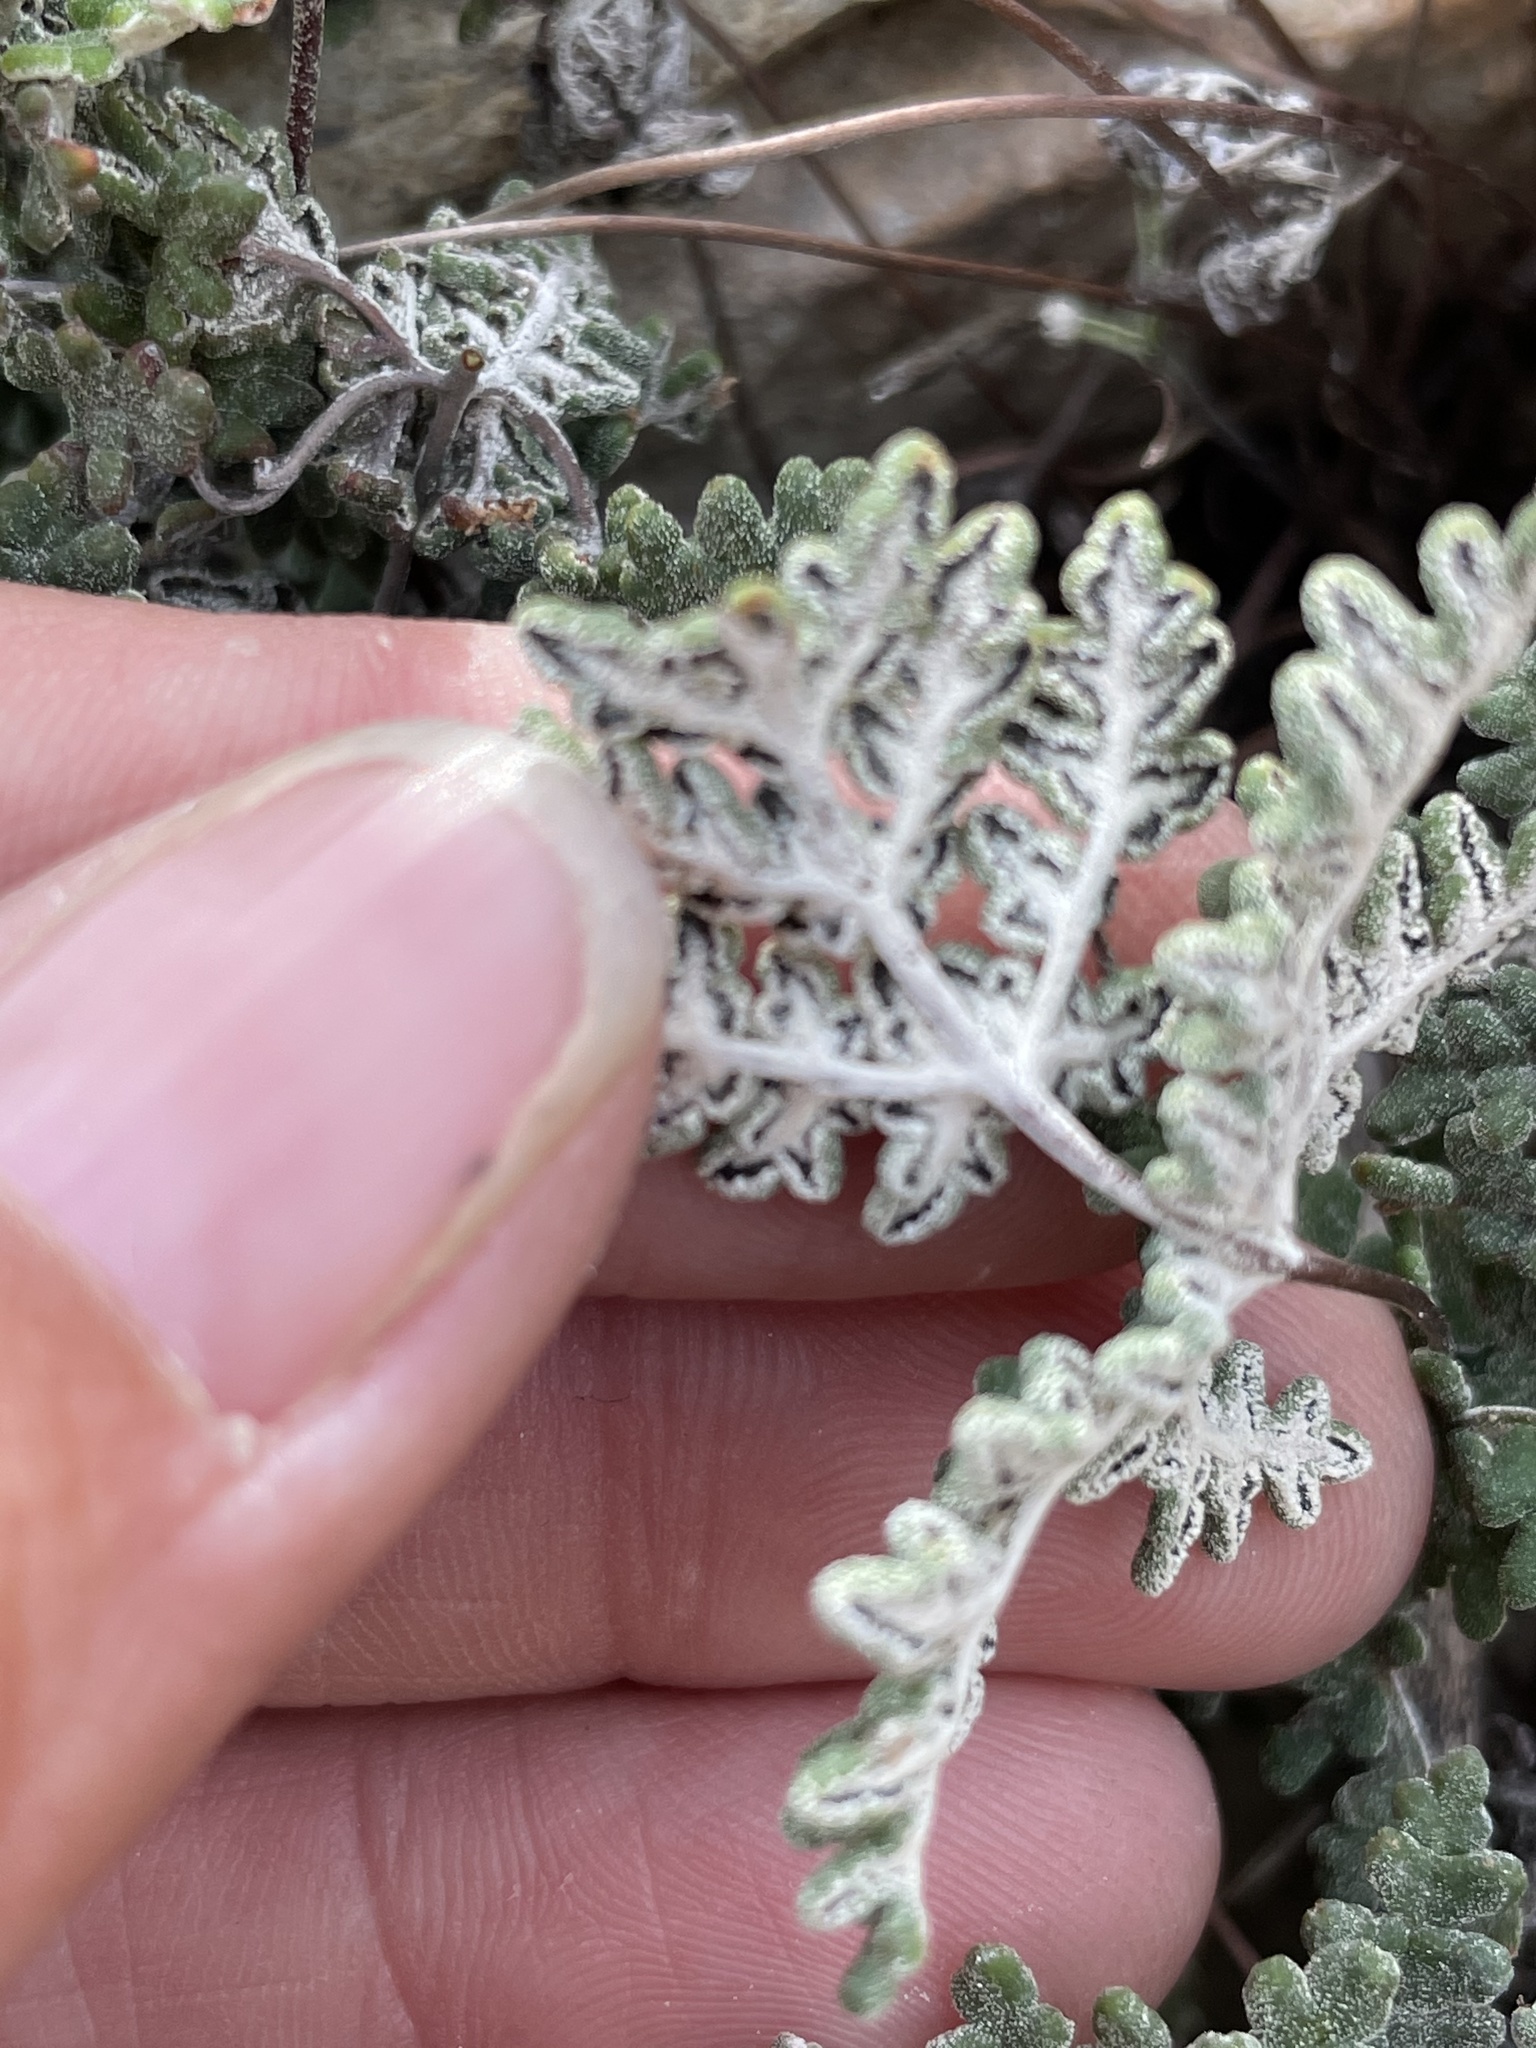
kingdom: Plantae
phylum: Tracheophyta
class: Polypodiopsida
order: Polypodiales
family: Pteridaceae
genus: Notholaena
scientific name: Notholaena californica
